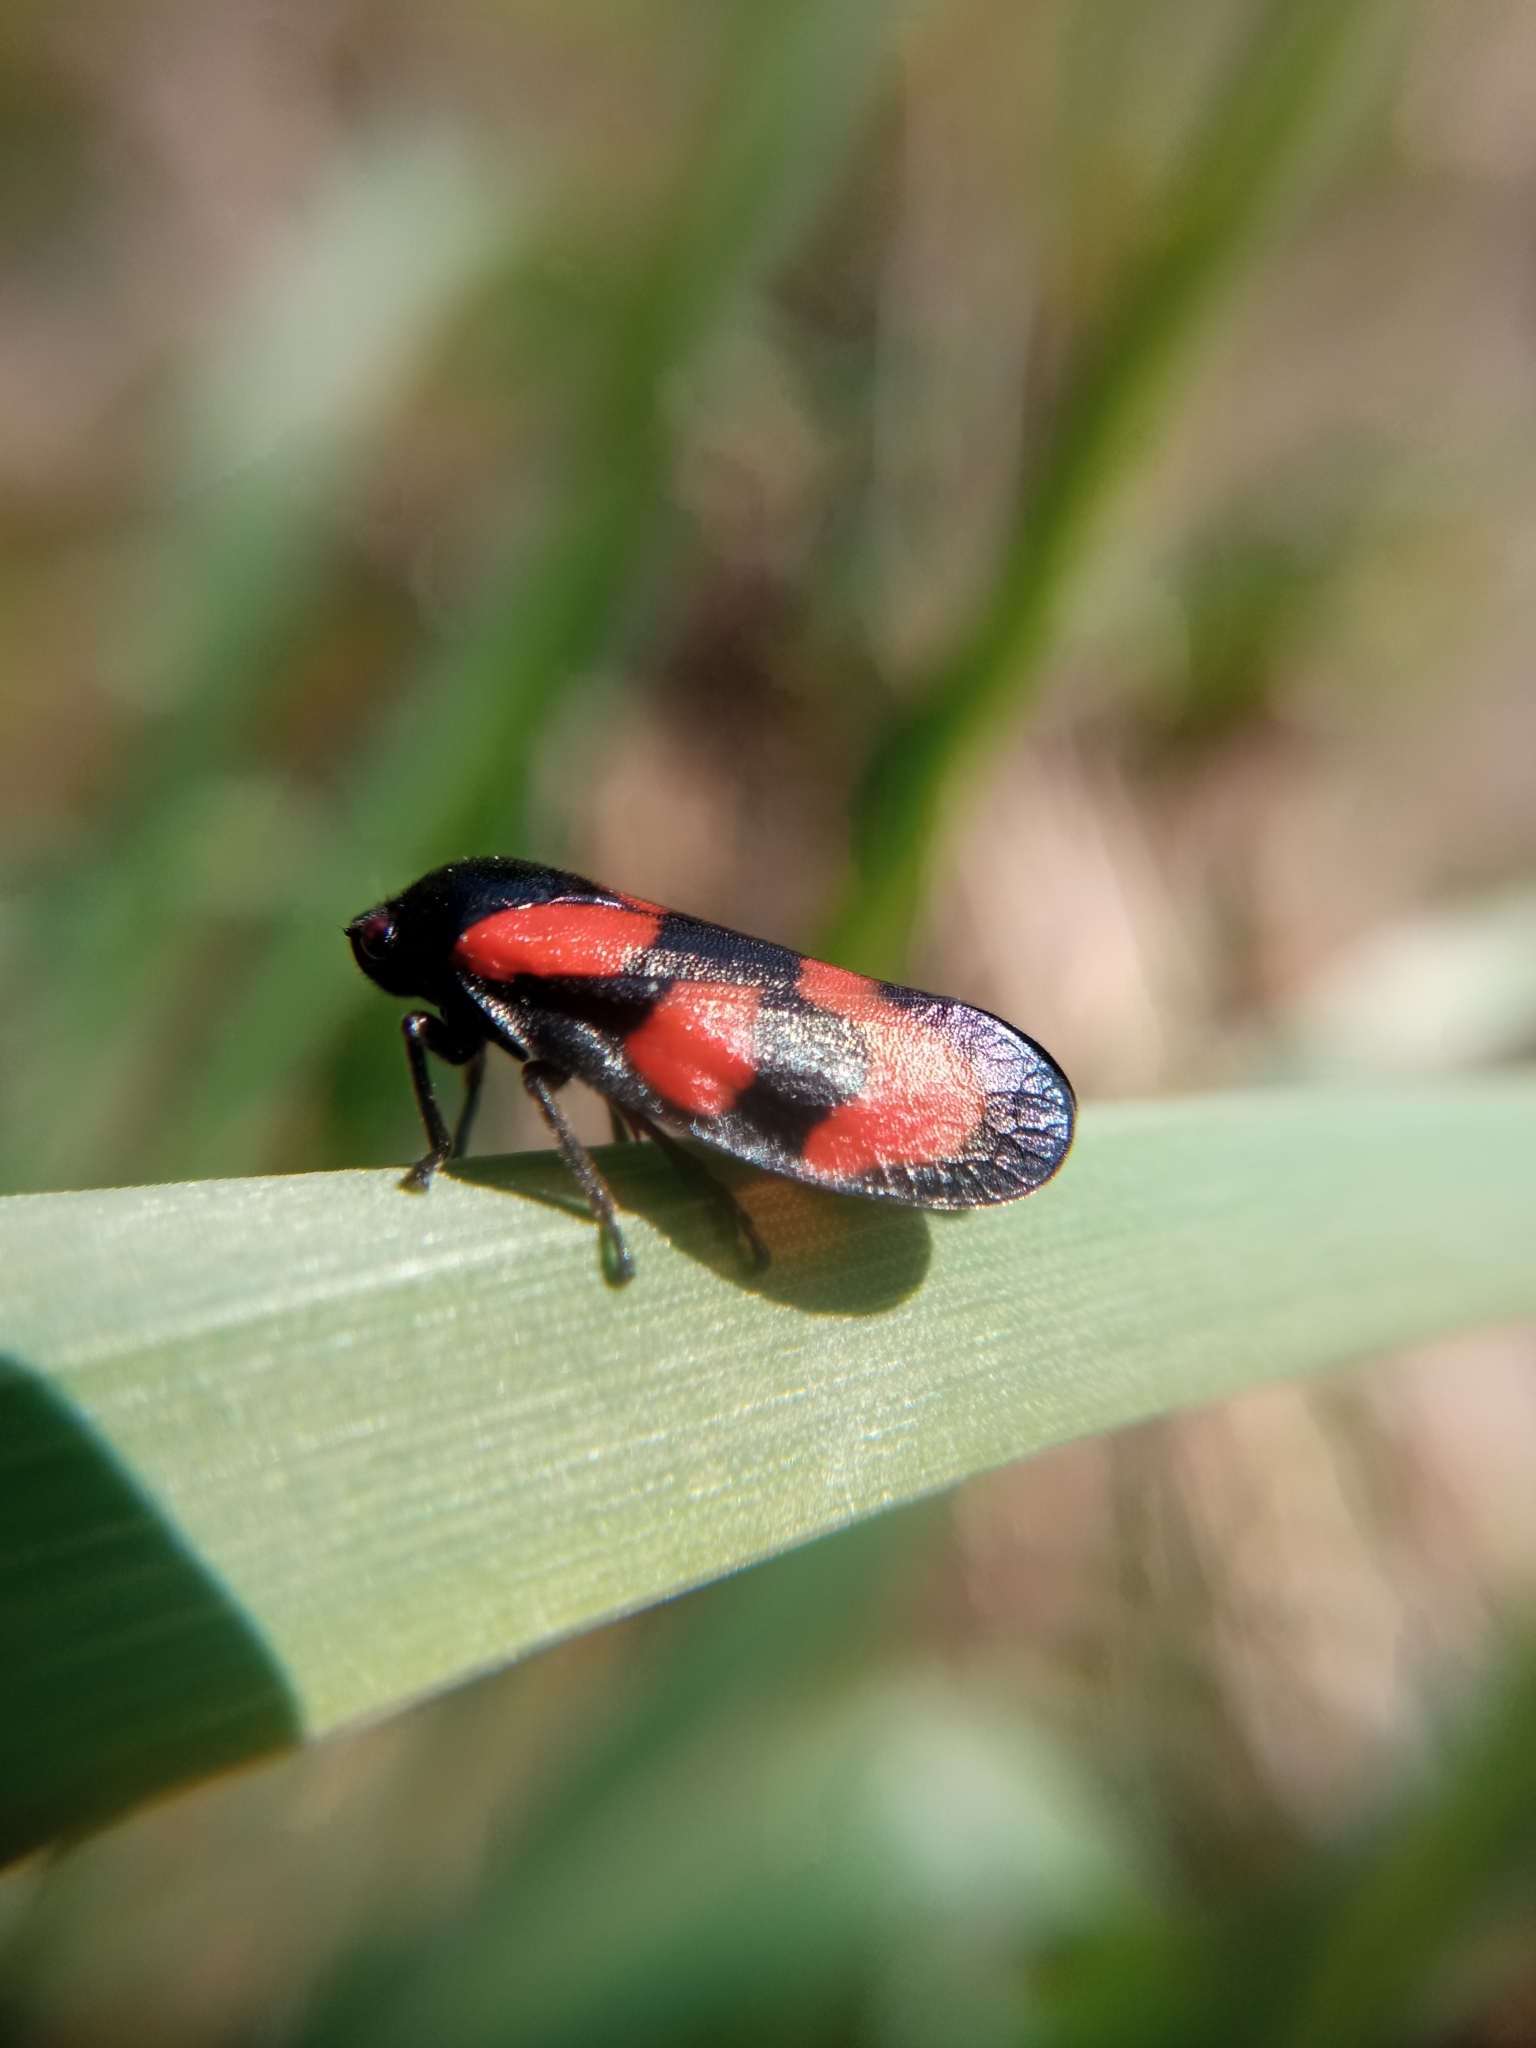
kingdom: Animalia
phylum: Arthropoda
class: Insecta
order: Hemiptera
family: Cercopidae
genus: Cercopis
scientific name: Cercopis vulnerata
